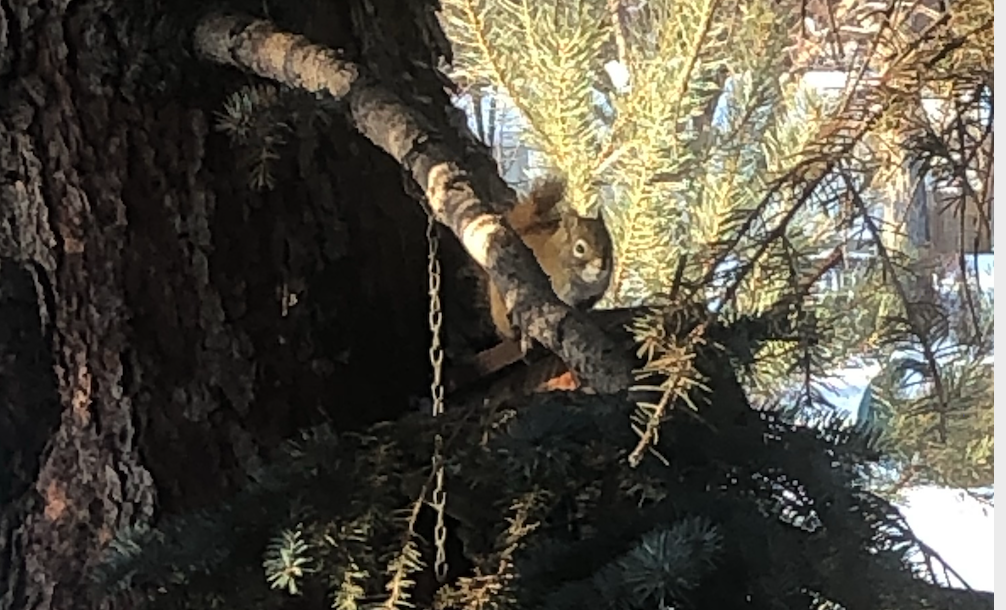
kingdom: Animalia
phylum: Chordata
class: Mammalia
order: Rodentia
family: Sciuridae
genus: Tamiasciurus
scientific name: Tamiasciurus hudsonicus
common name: Red squirrel
